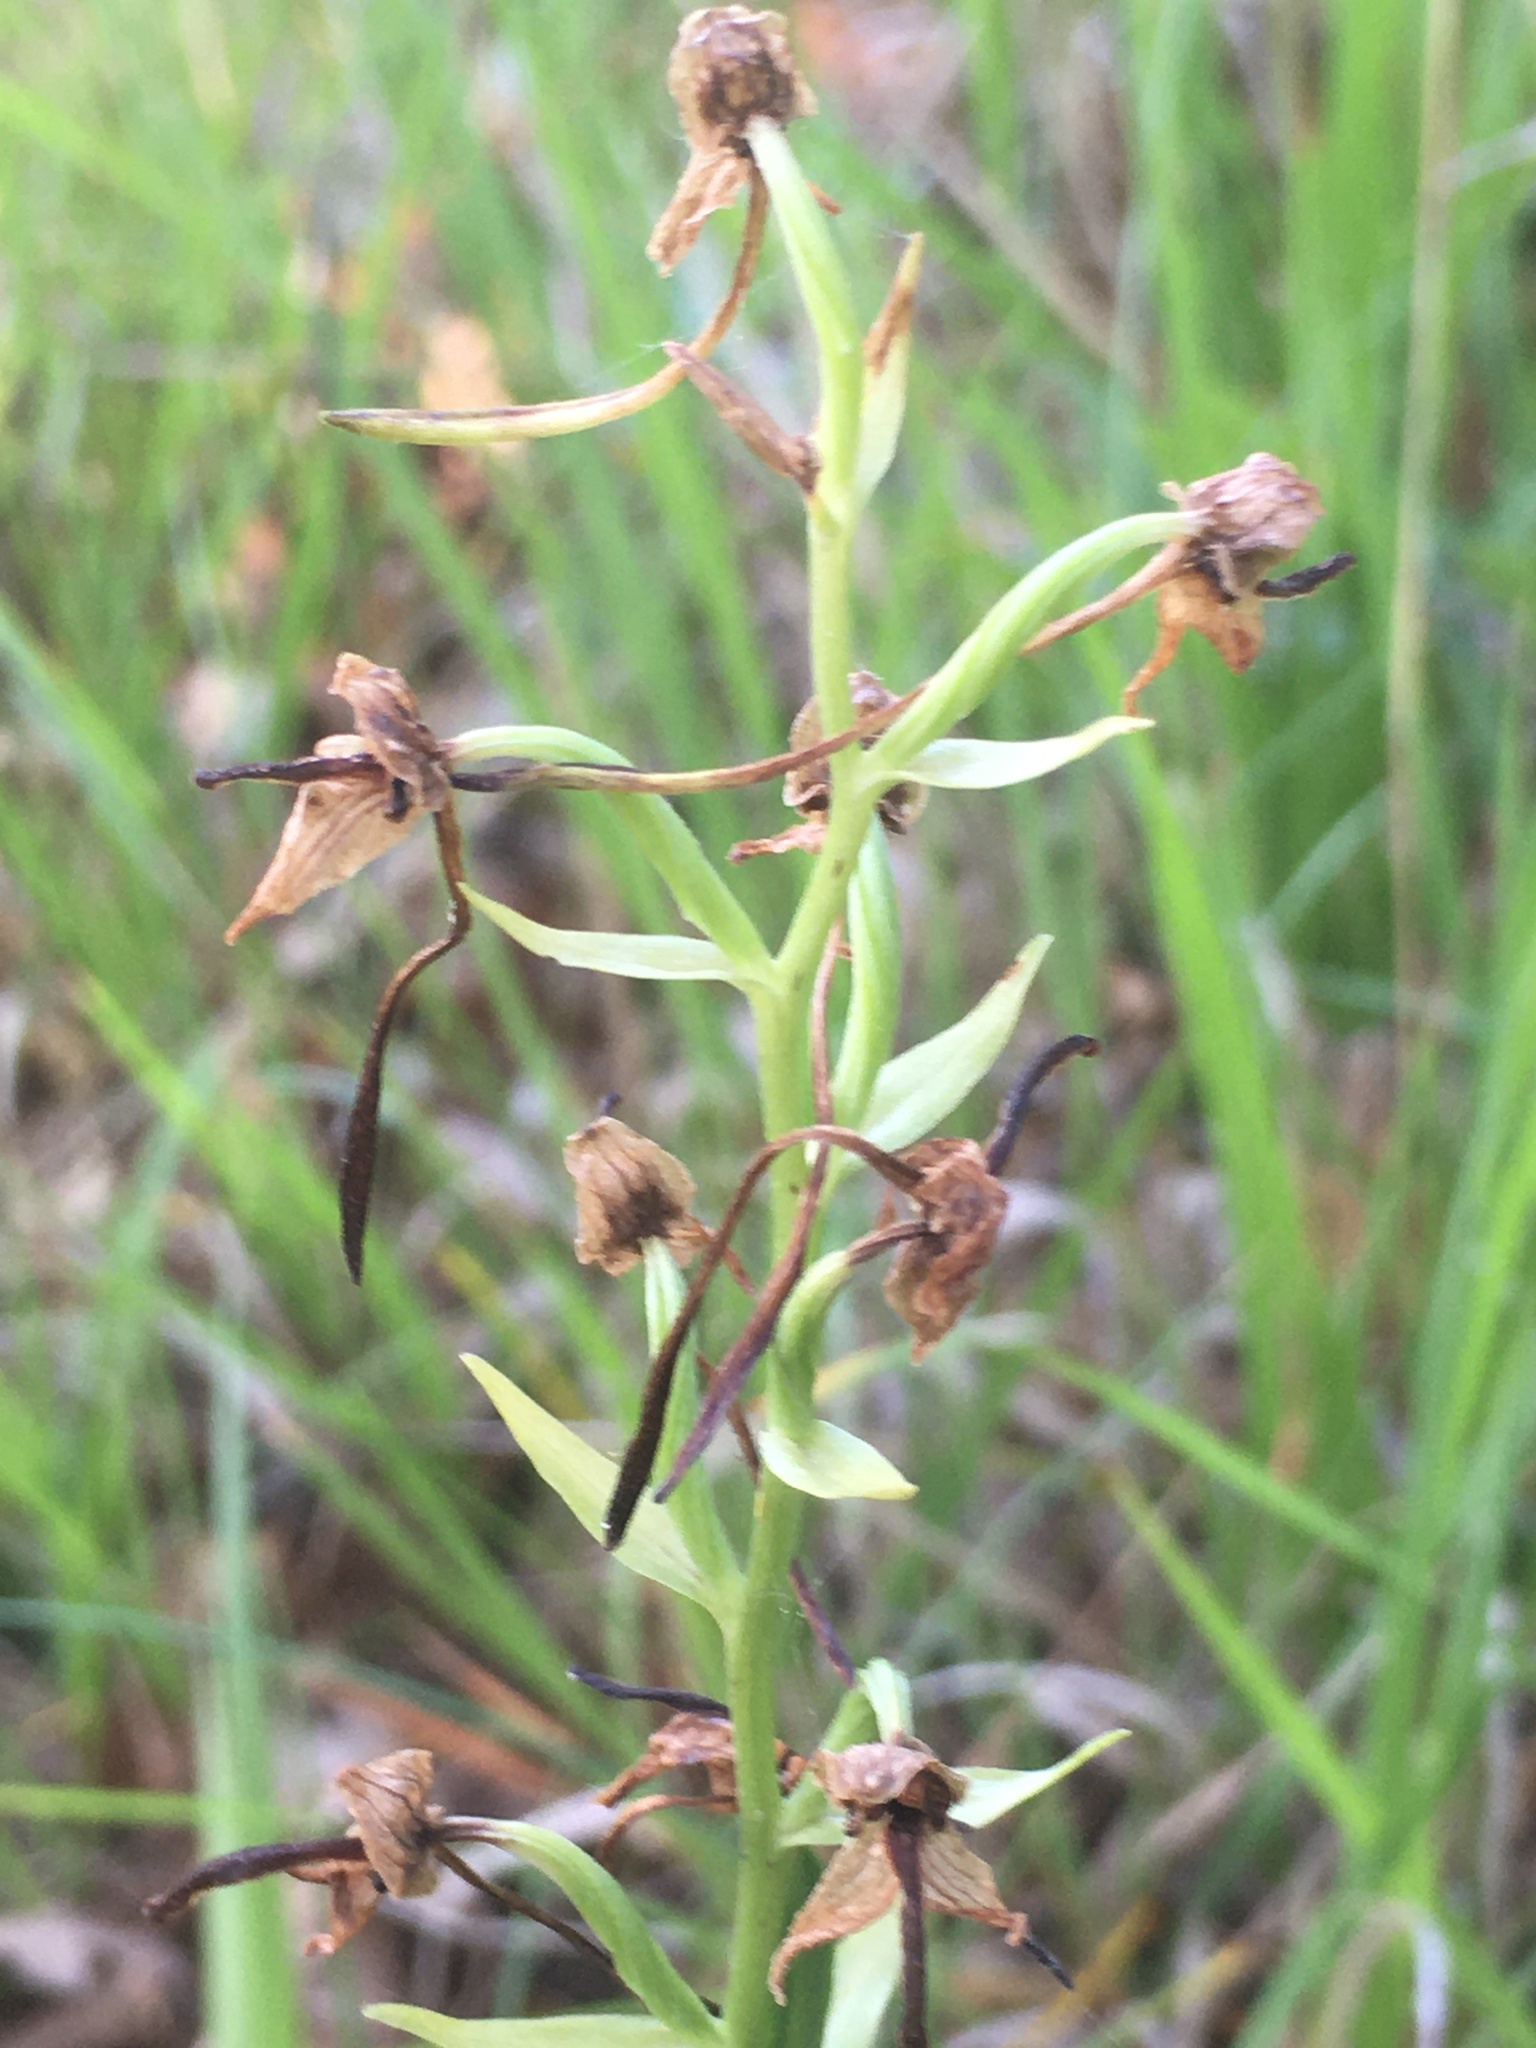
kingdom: Plantae
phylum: Tracheophyta
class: Liliopsida
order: Asparagales
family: Orchidaceae
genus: Platanthera
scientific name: Platanthera chlorantha
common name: Greater butterfly-orchid
